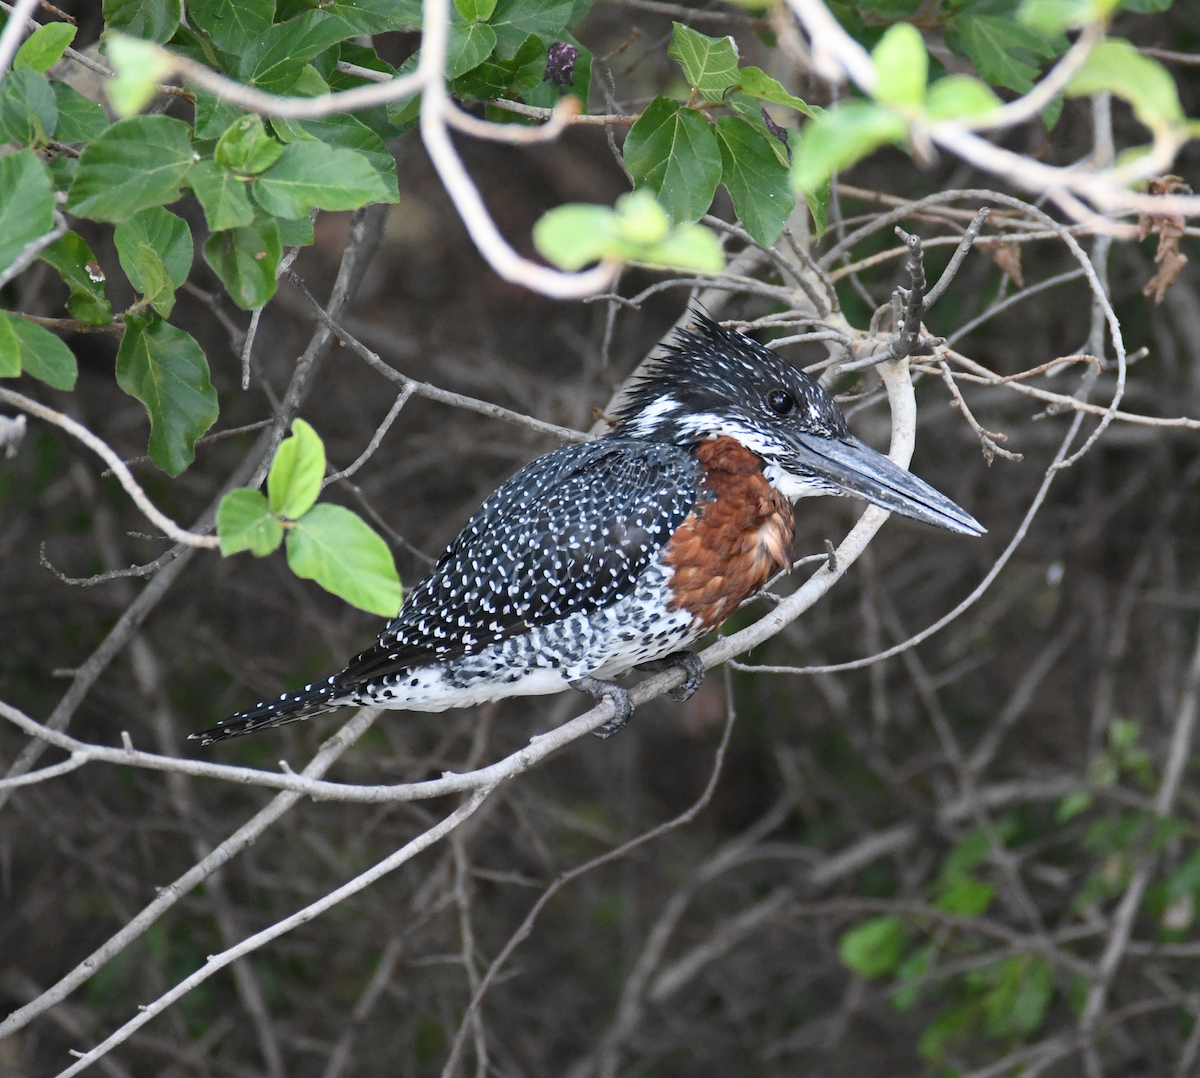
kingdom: Animalia
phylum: Chordata
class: Aves
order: Coraciiformes
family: Alcedinidae
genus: Megaceryle
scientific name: Megaceryle maxima
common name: Giant kingfisher
